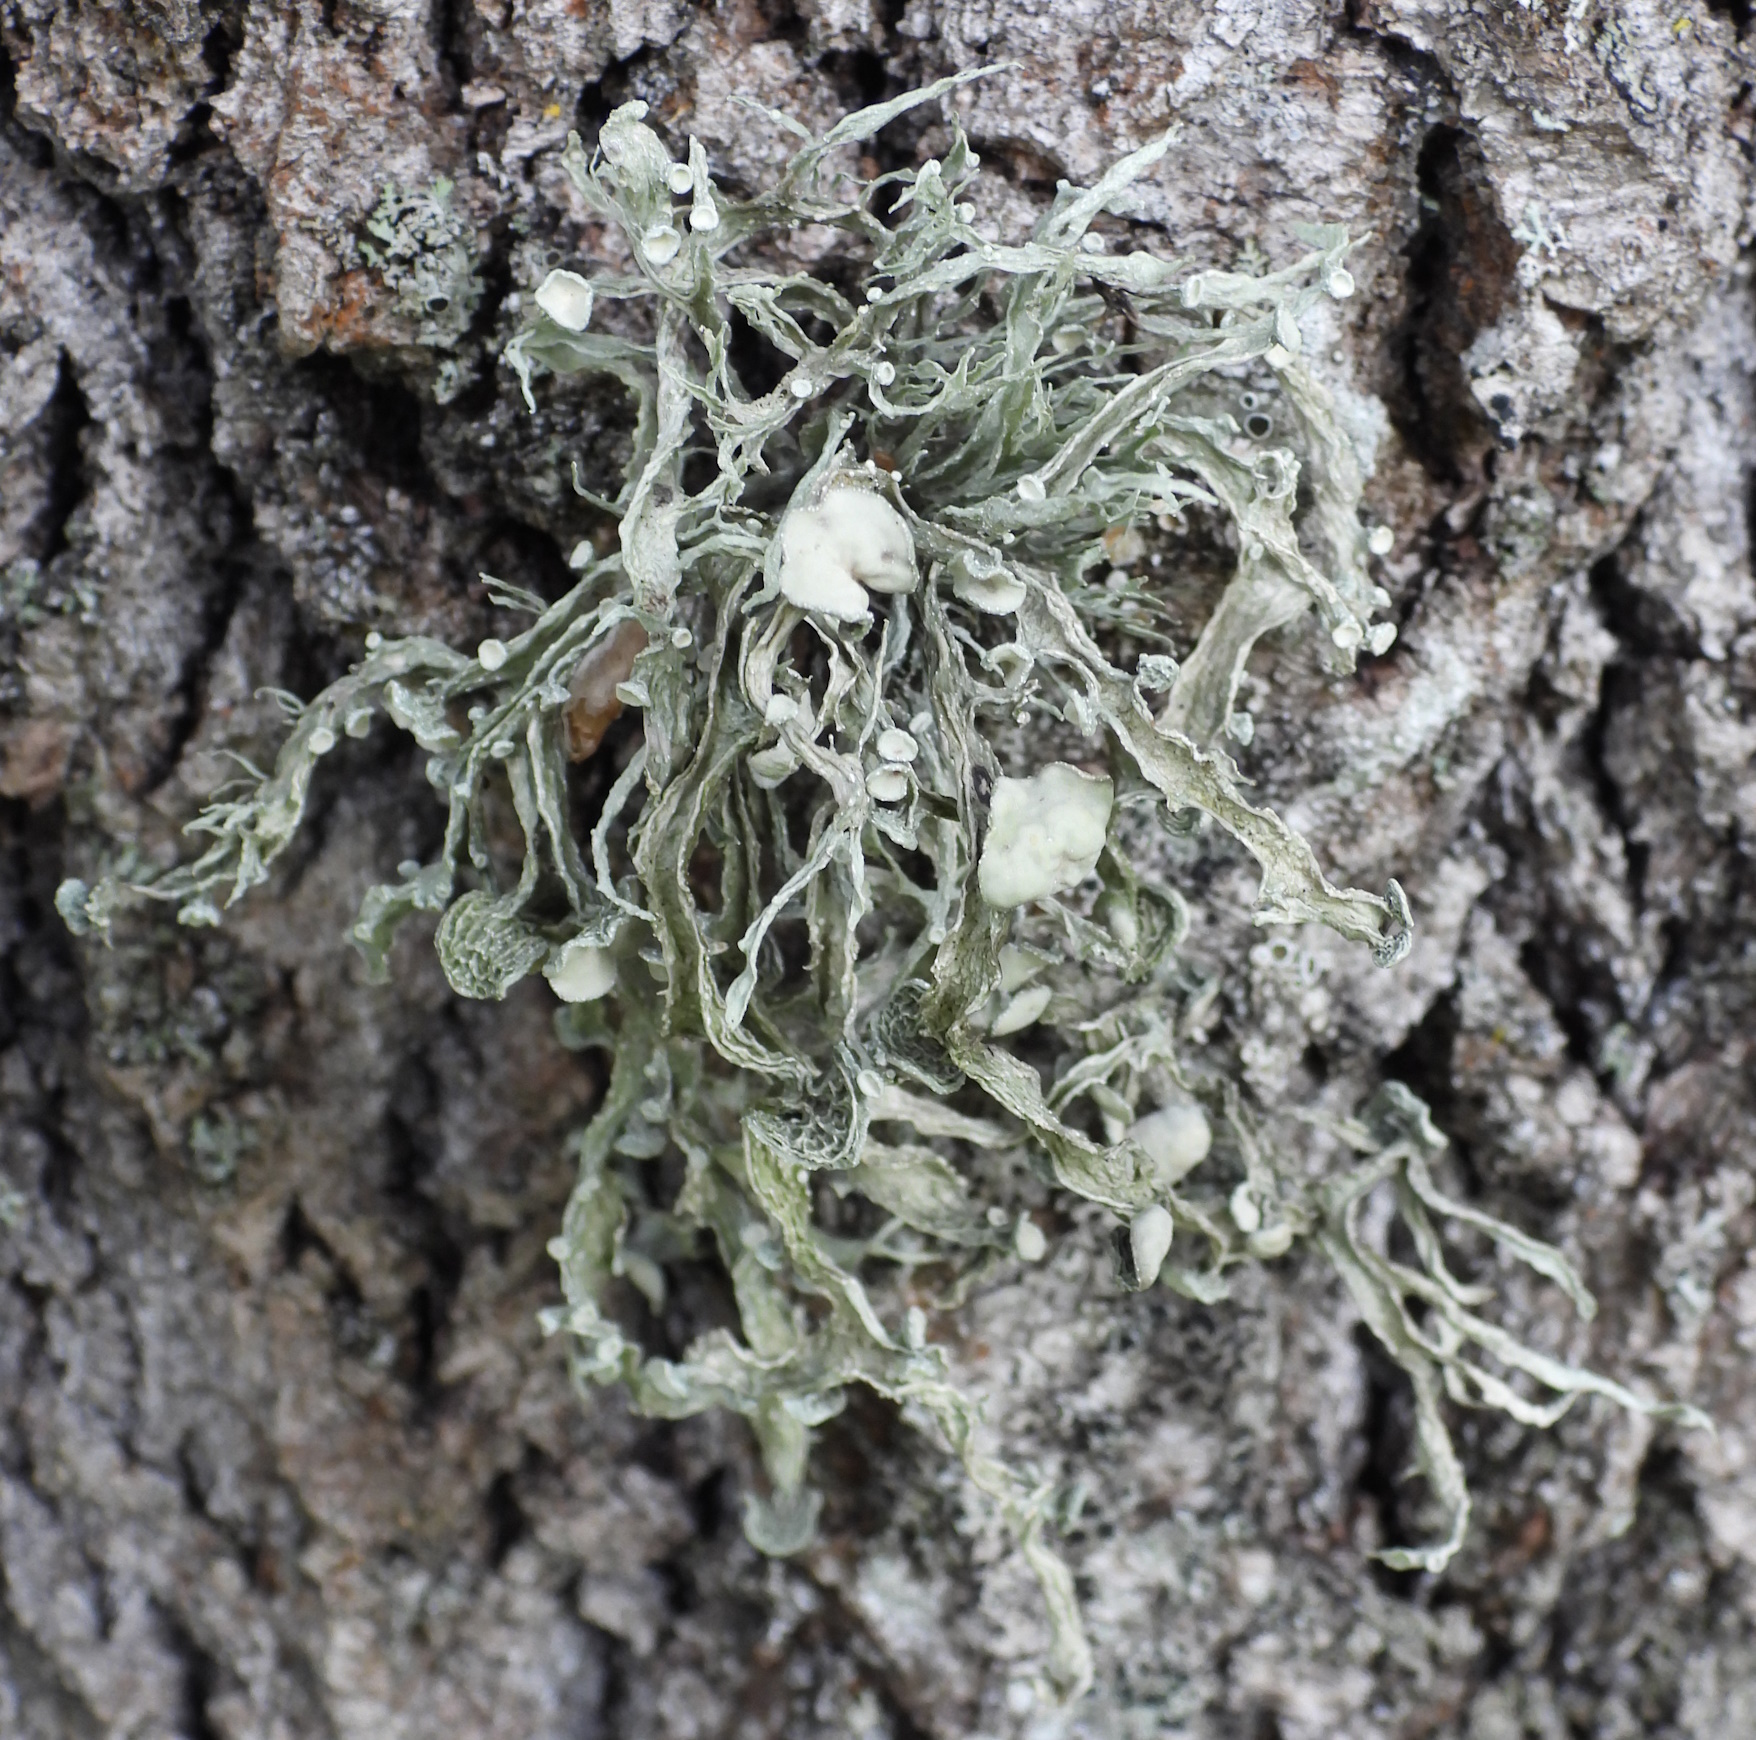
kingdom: Fungi
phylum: Ascomycota
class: Lecanoromycetes
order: Lecanorales
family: Ramalinaceae
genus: Ramalina
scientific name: Ramalina fraxinea
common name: Cartilage lichen
